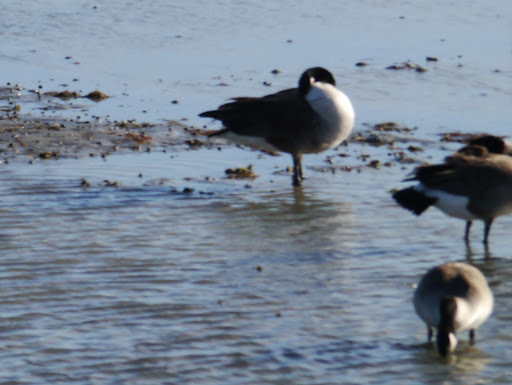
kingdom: Animalia
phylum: Chordata
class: Aves
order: Anseriformes
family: Anatidae
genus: Branta
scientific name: Branta canadensis
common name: Canada goose
